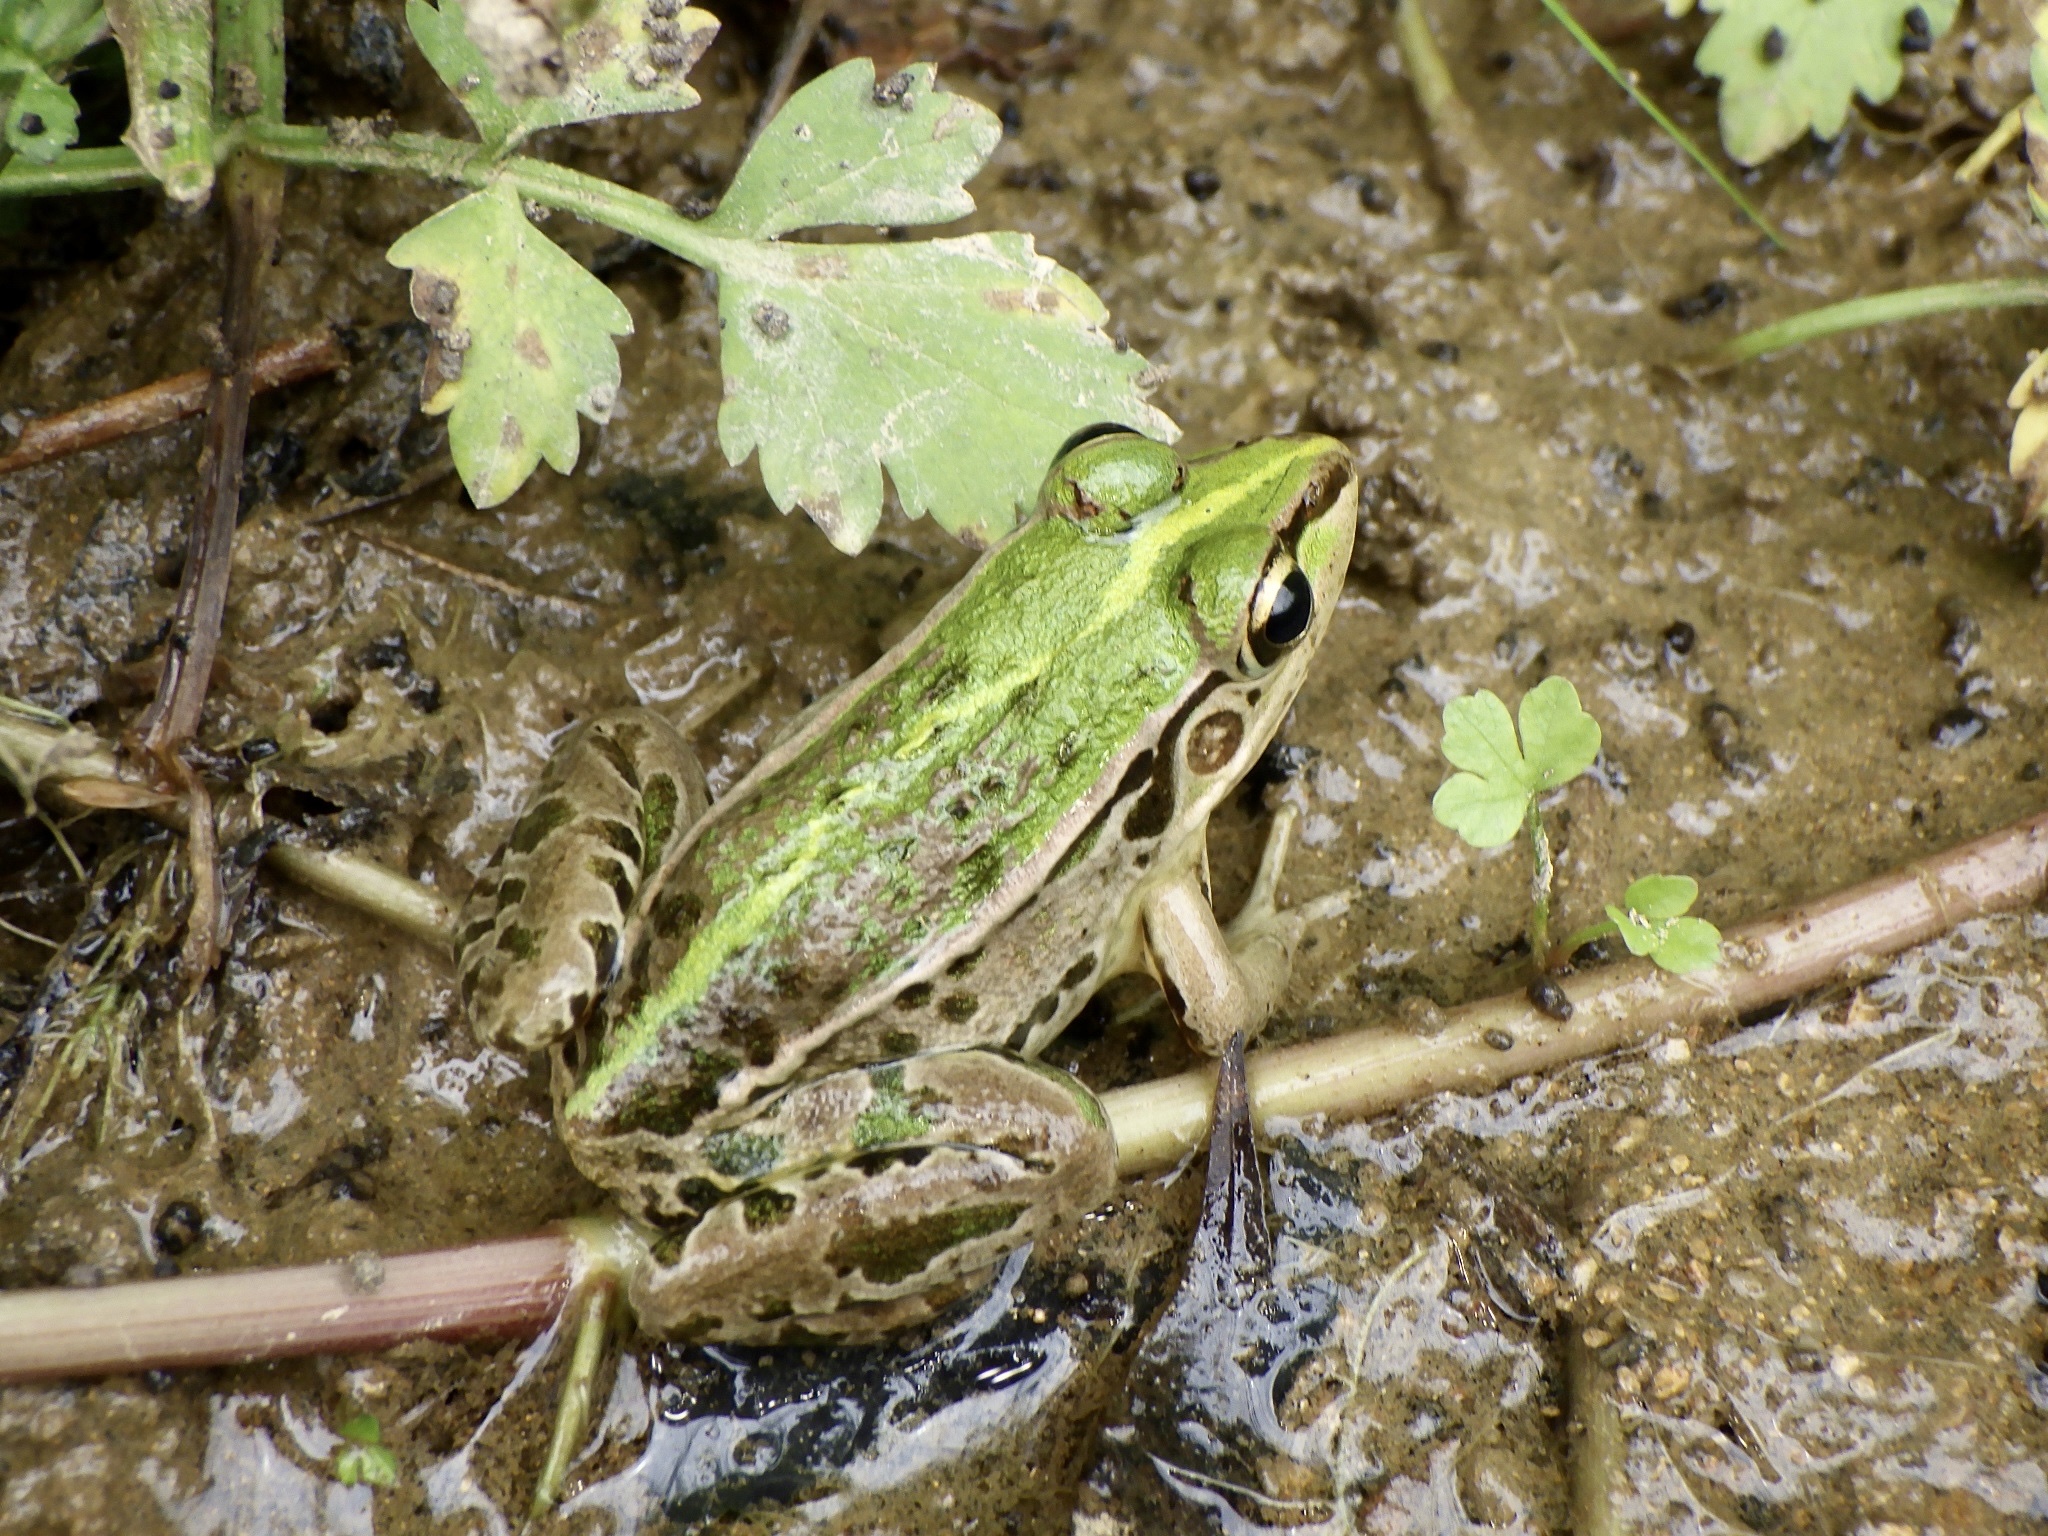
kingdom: Animalia
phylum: Chordata
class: Amphibia
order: Anura
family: Ranidae
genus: Pelophylax
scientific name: Pelophylax nigromaculatus
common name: Black-spotted pond frog
